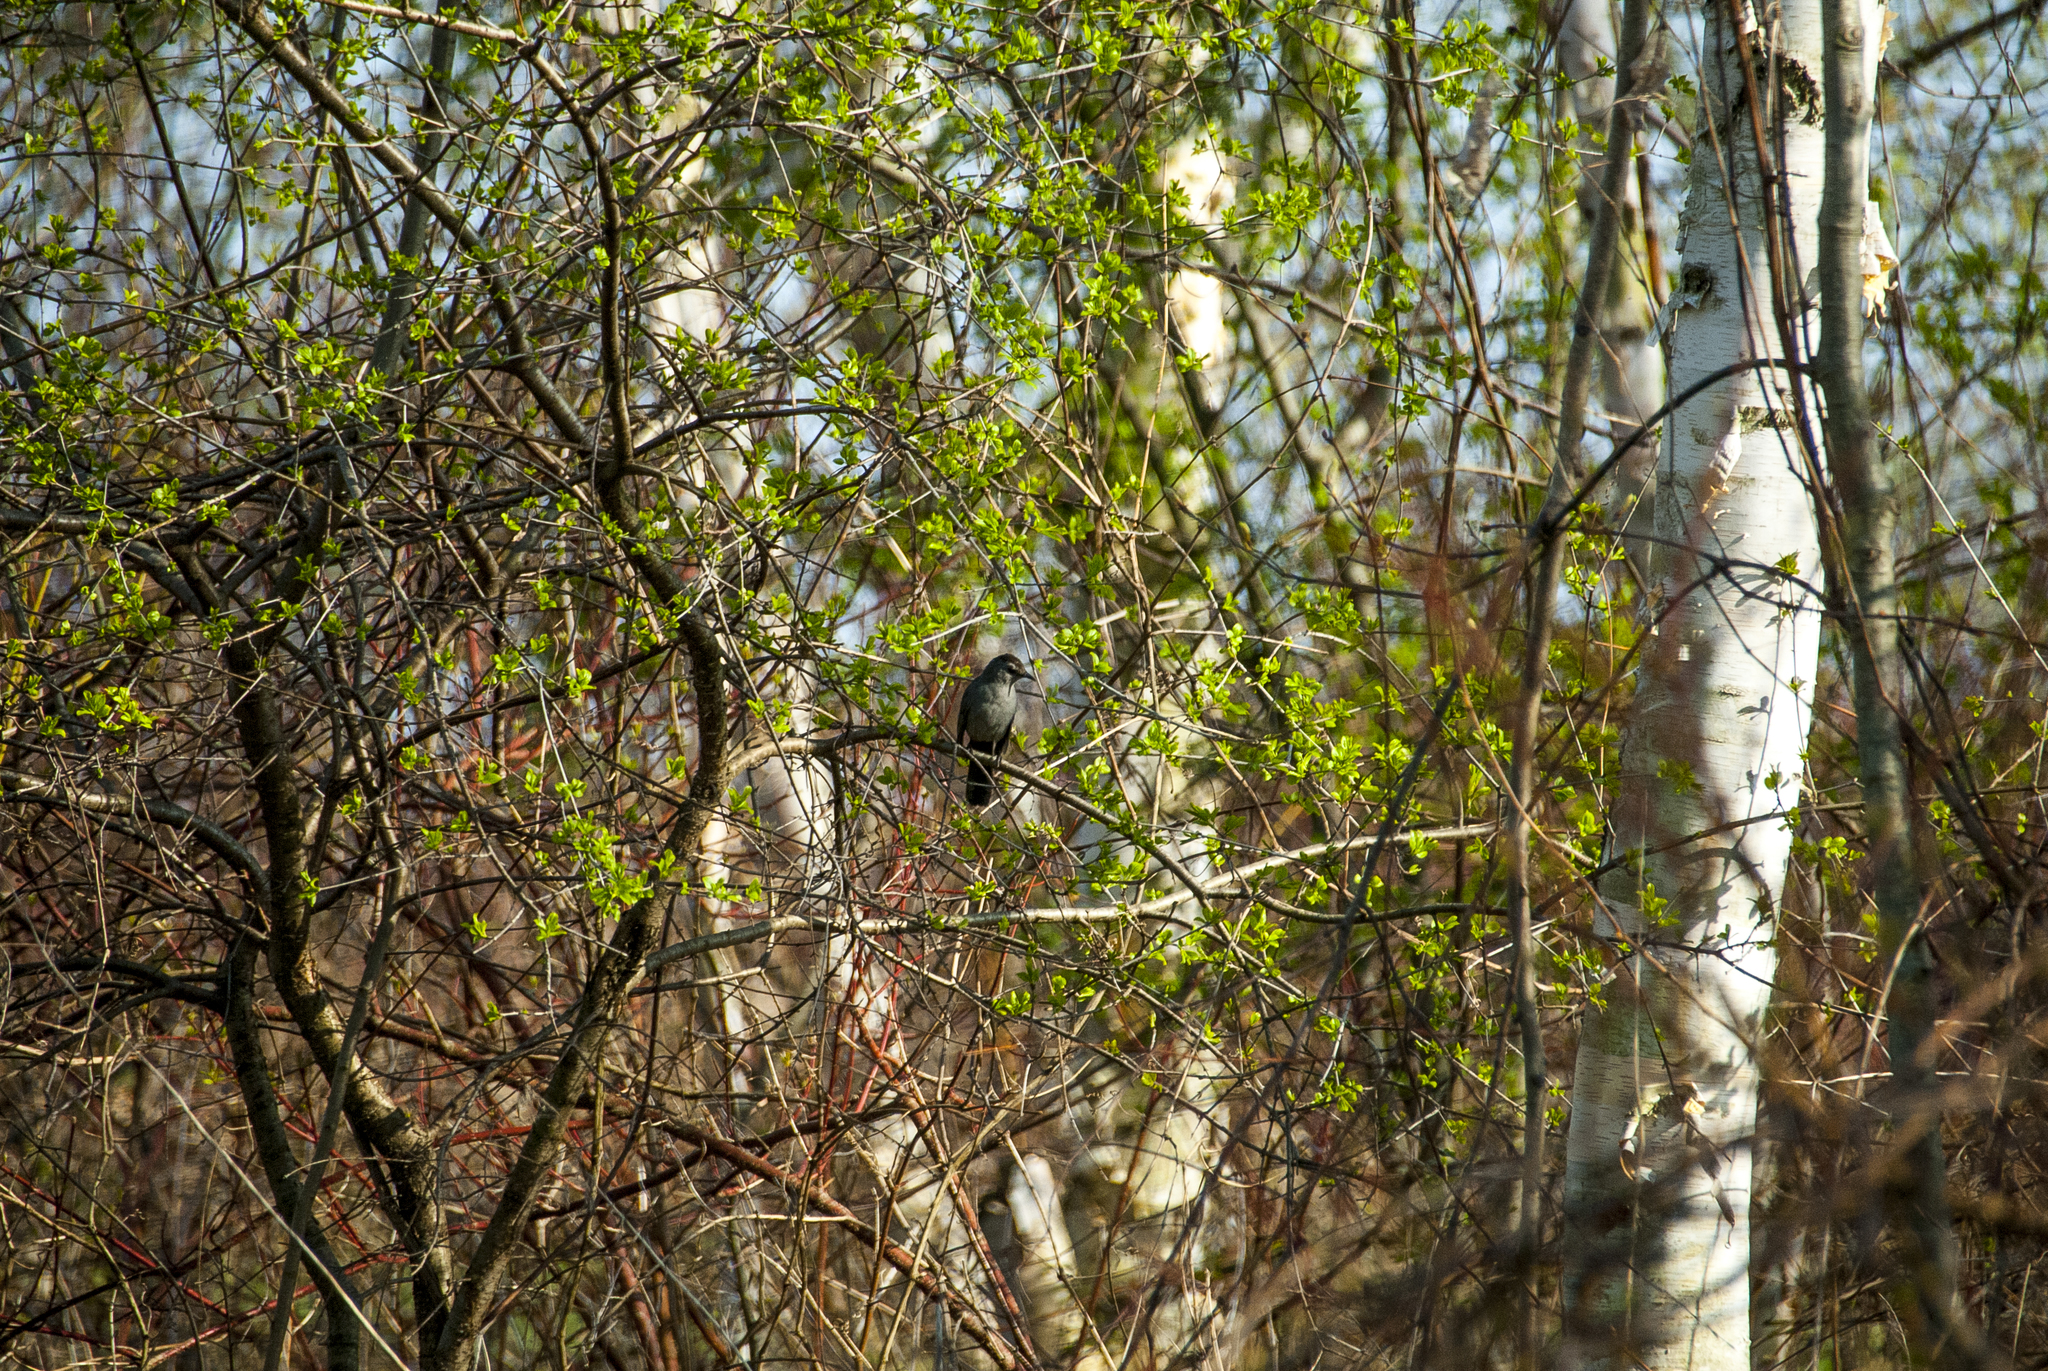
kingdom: Animalia
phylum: Chordata
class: Aves
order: Passeriformes
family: Mimidae
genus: Dumetella
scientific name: Dumetella carolinensis
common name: Gray catbird
